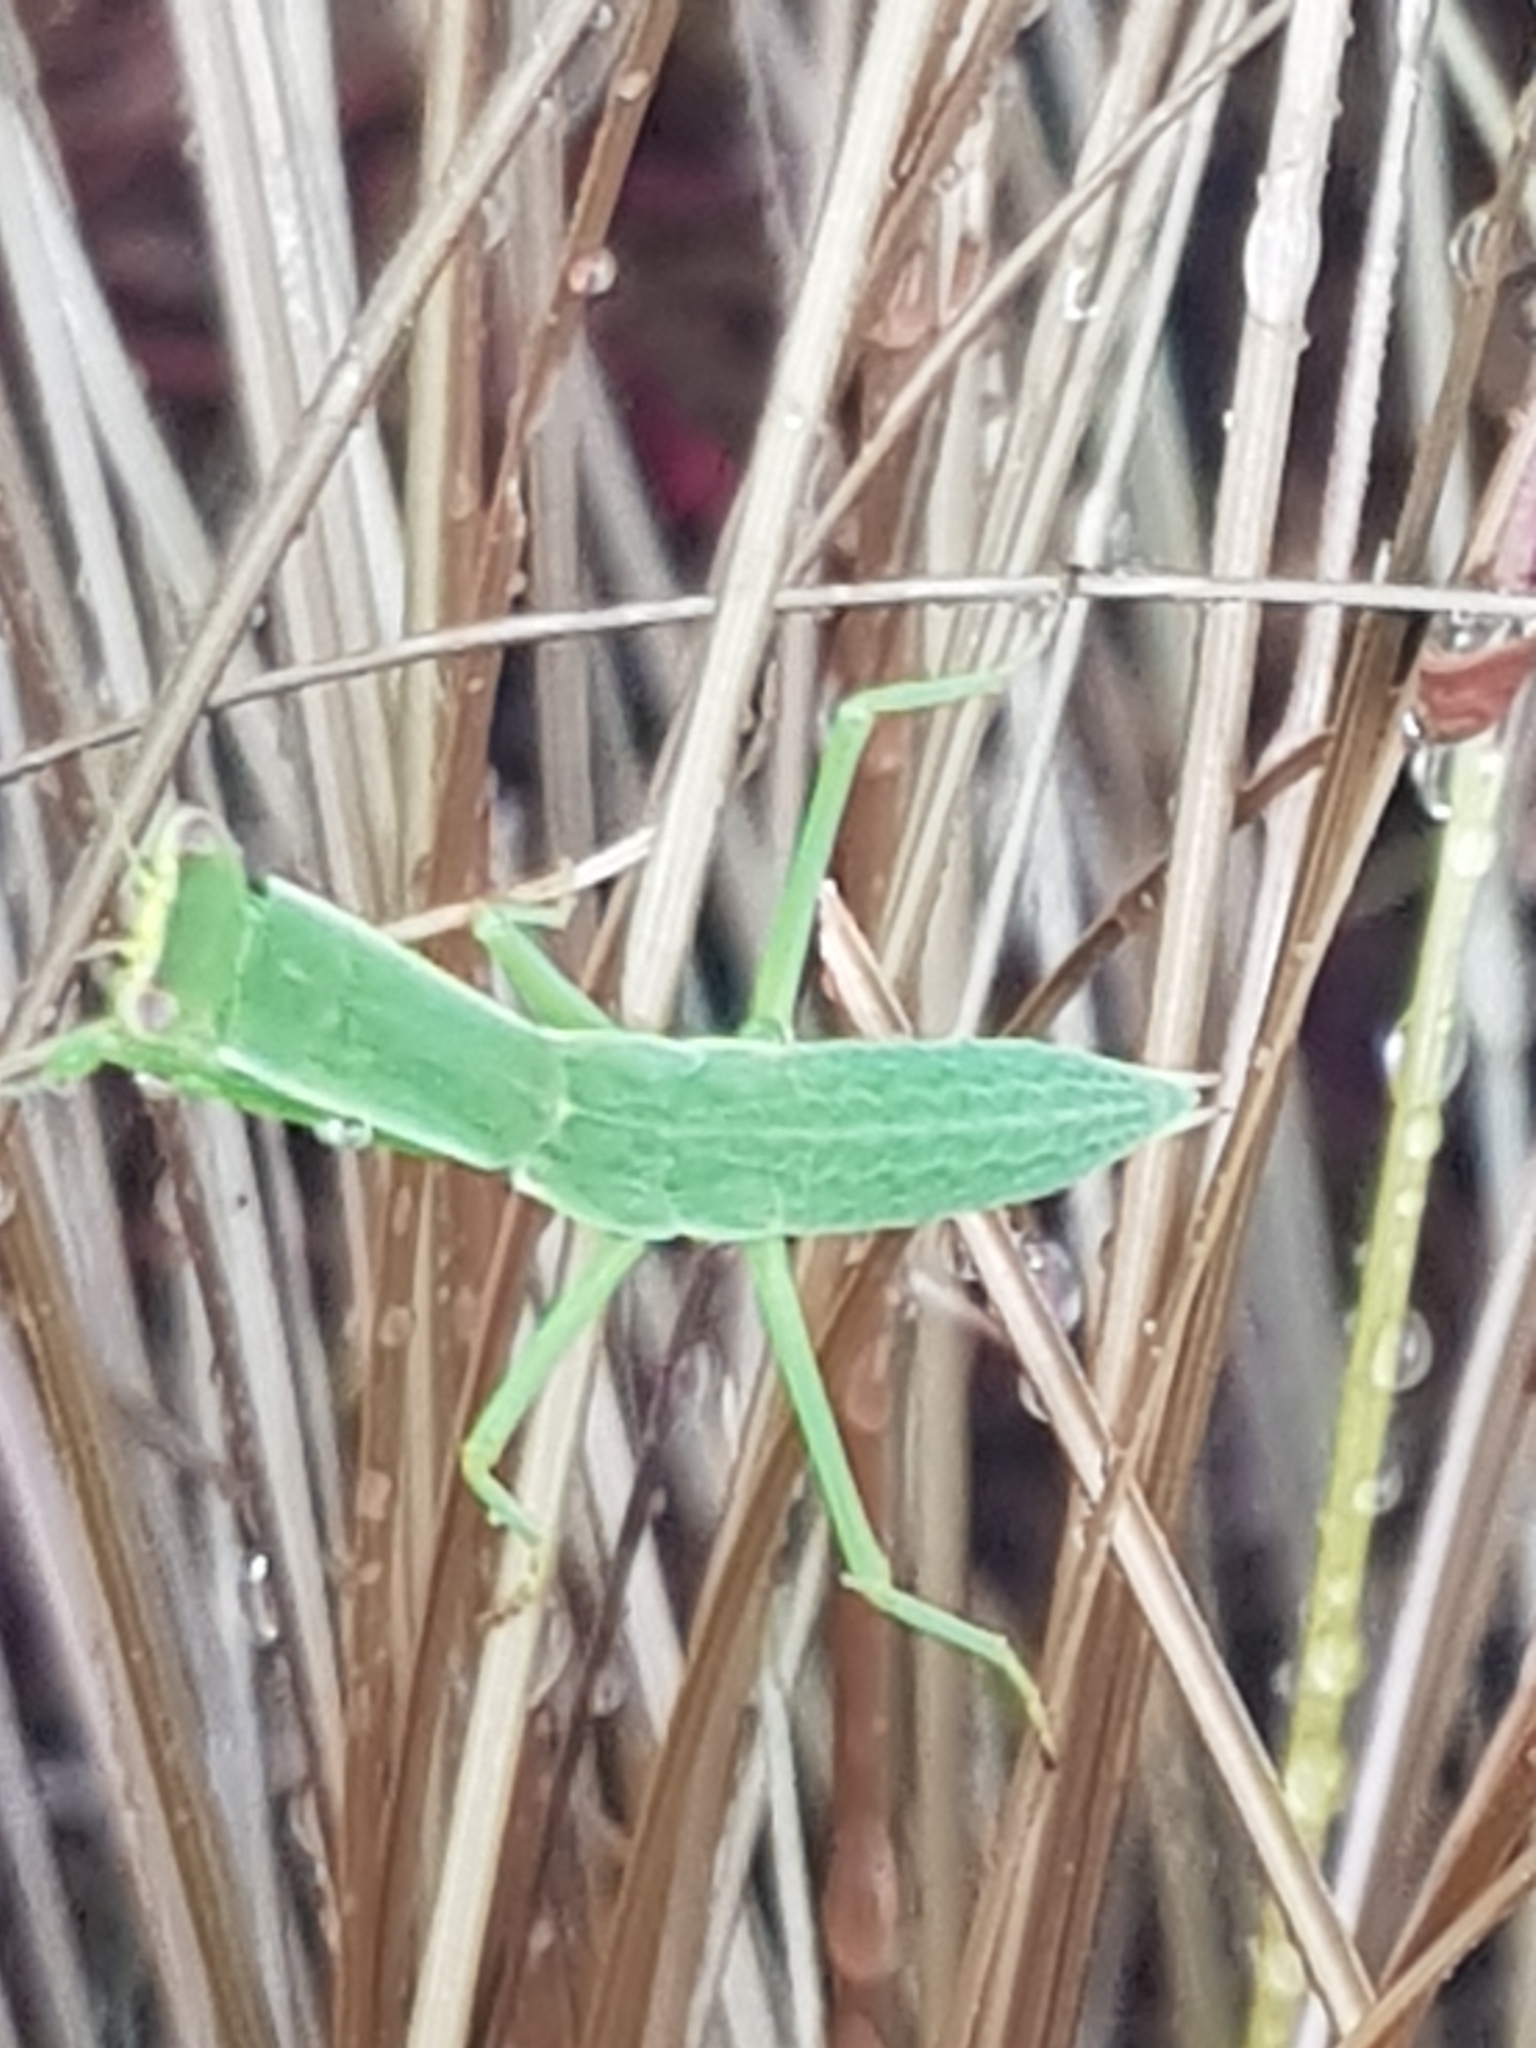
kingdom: Animalia
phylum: Arthropoda
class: Insecta
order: Mantodea
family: Mantidae
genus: Orthodera
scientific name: Orthodera novaezealandiae
